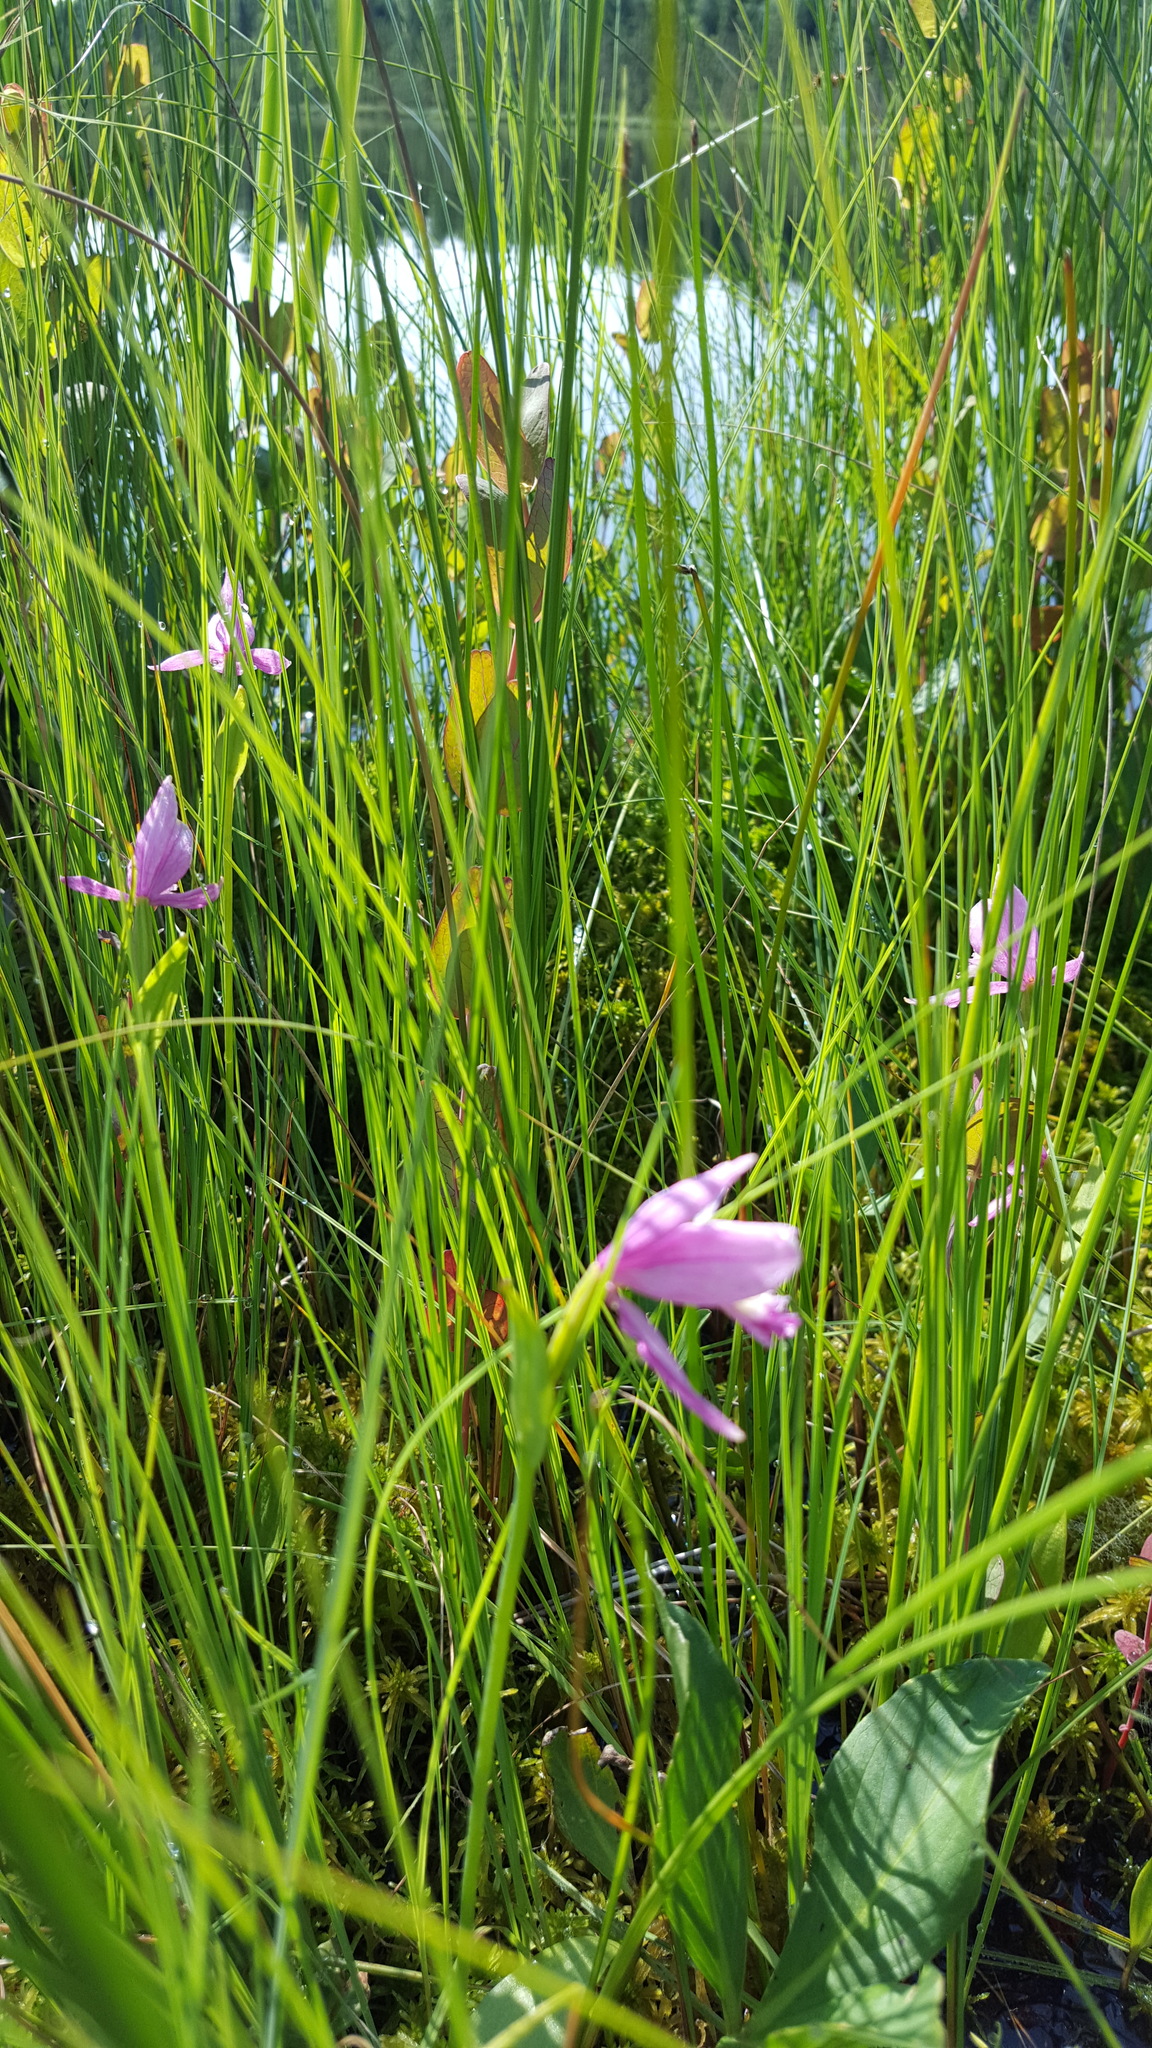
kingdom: Plantae
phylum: Tracheophyta
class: Liliopsida
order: Asparagales
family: Orchidaceae
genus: Pogonia
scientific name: Pogonia ophioglossoides
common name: Rose pogonia
